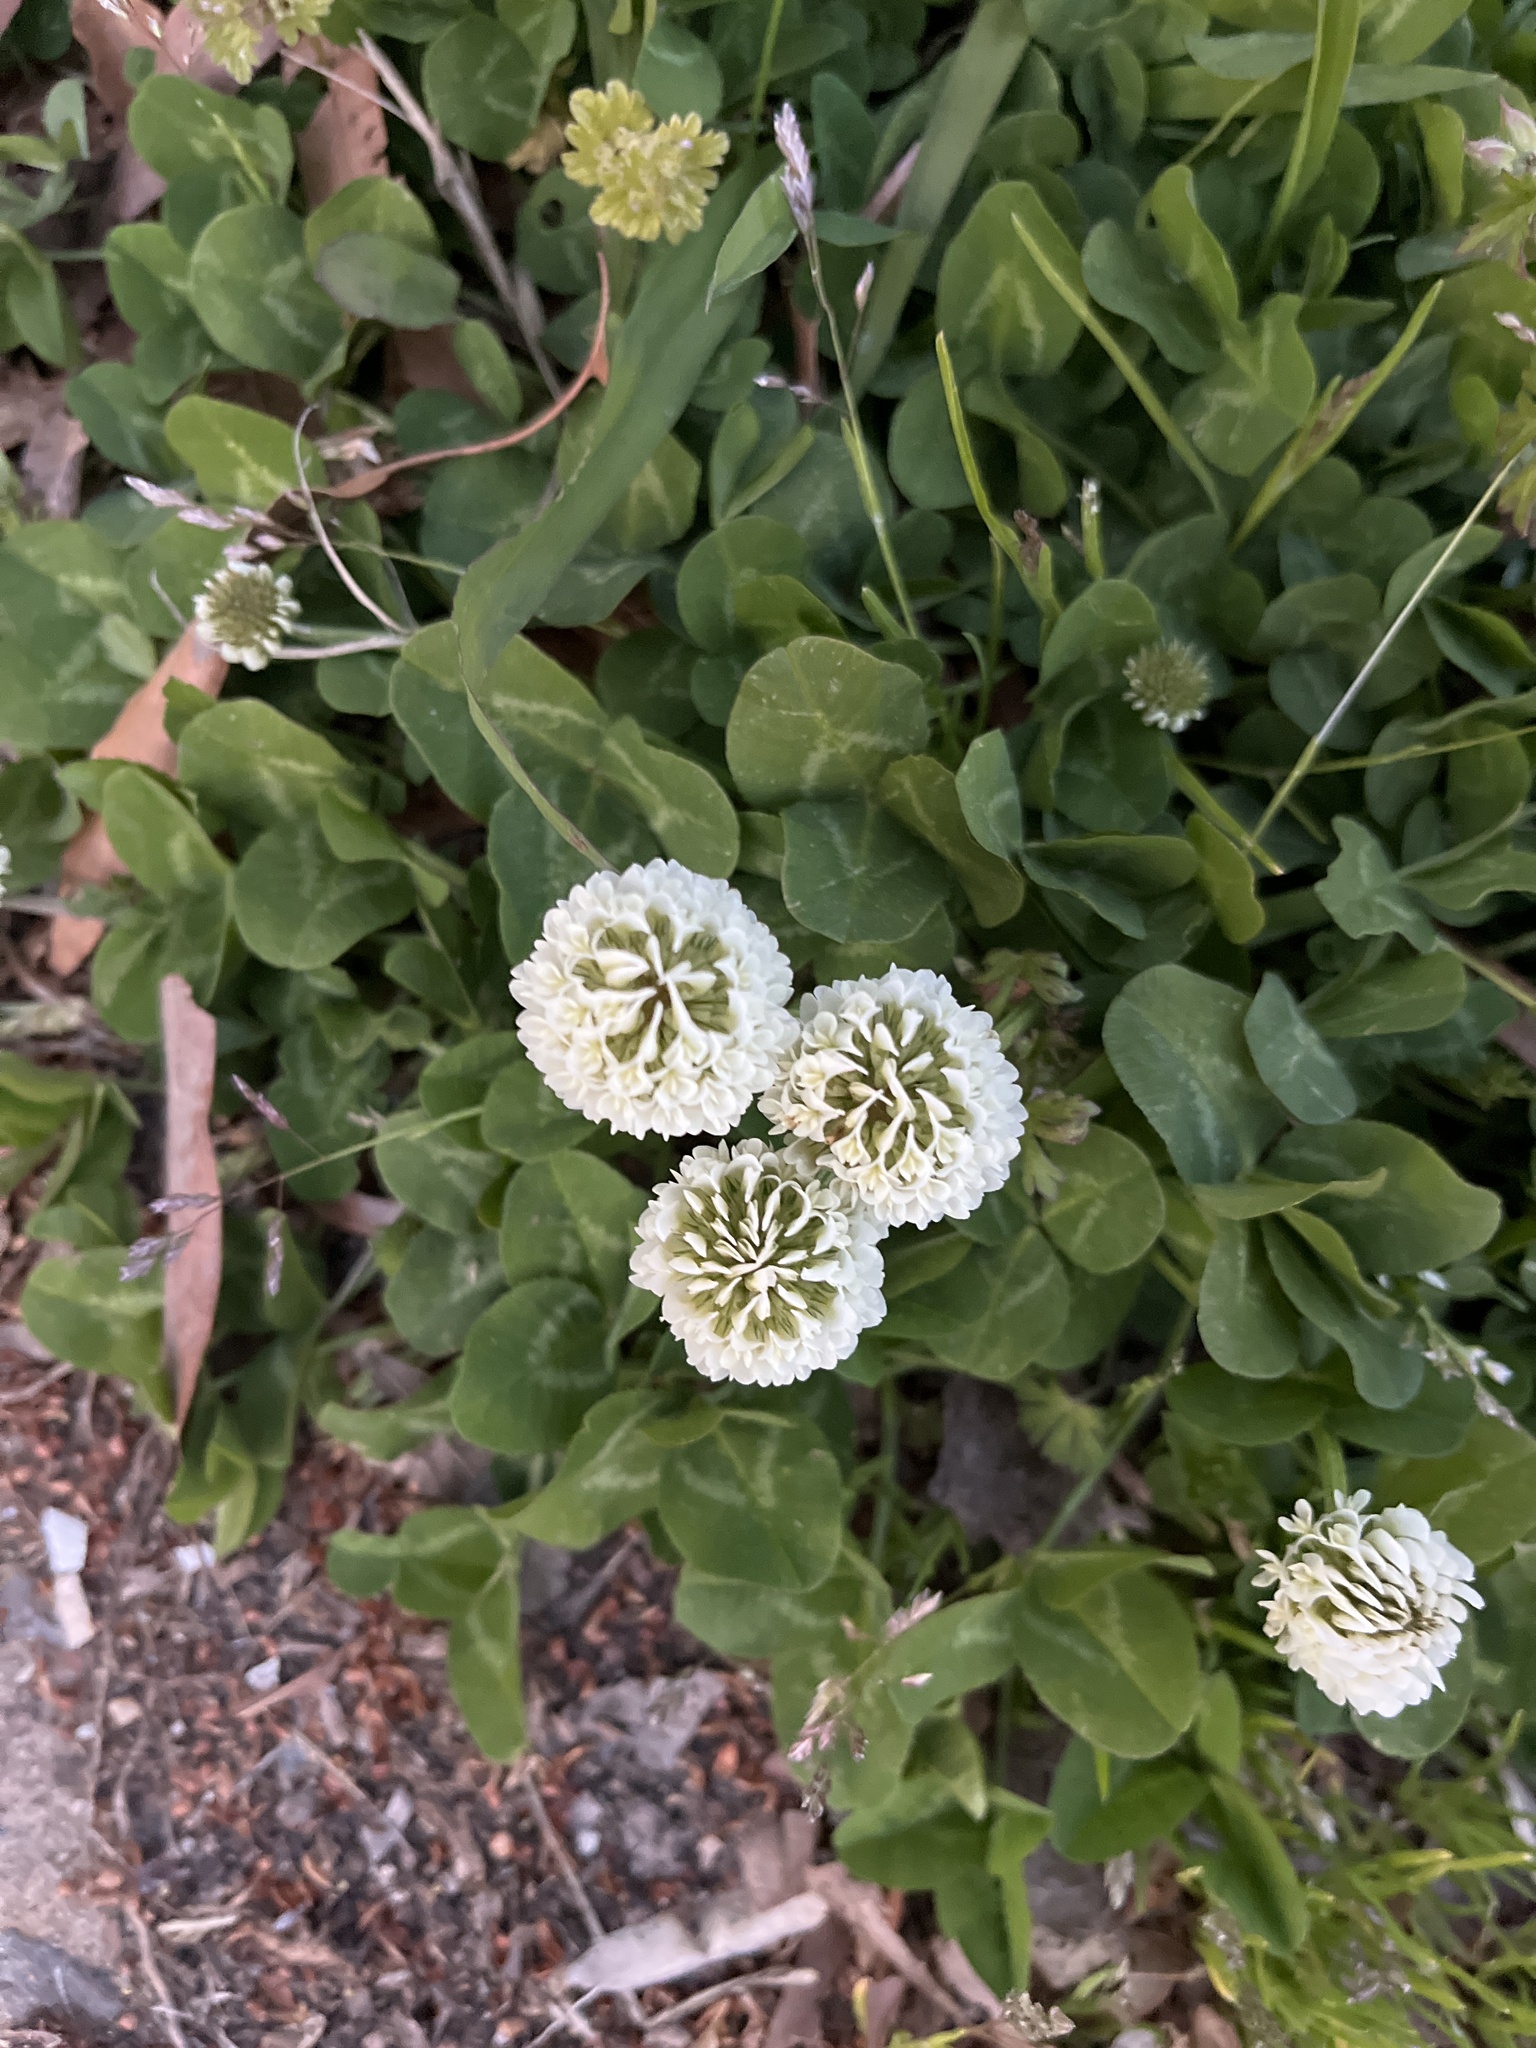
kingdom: Plantae
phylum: Tracheophyta
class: Magnoliopsida
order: Fabales
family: Fabaceae
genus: Trifolium
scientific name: Trifolium repens
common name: White clover
